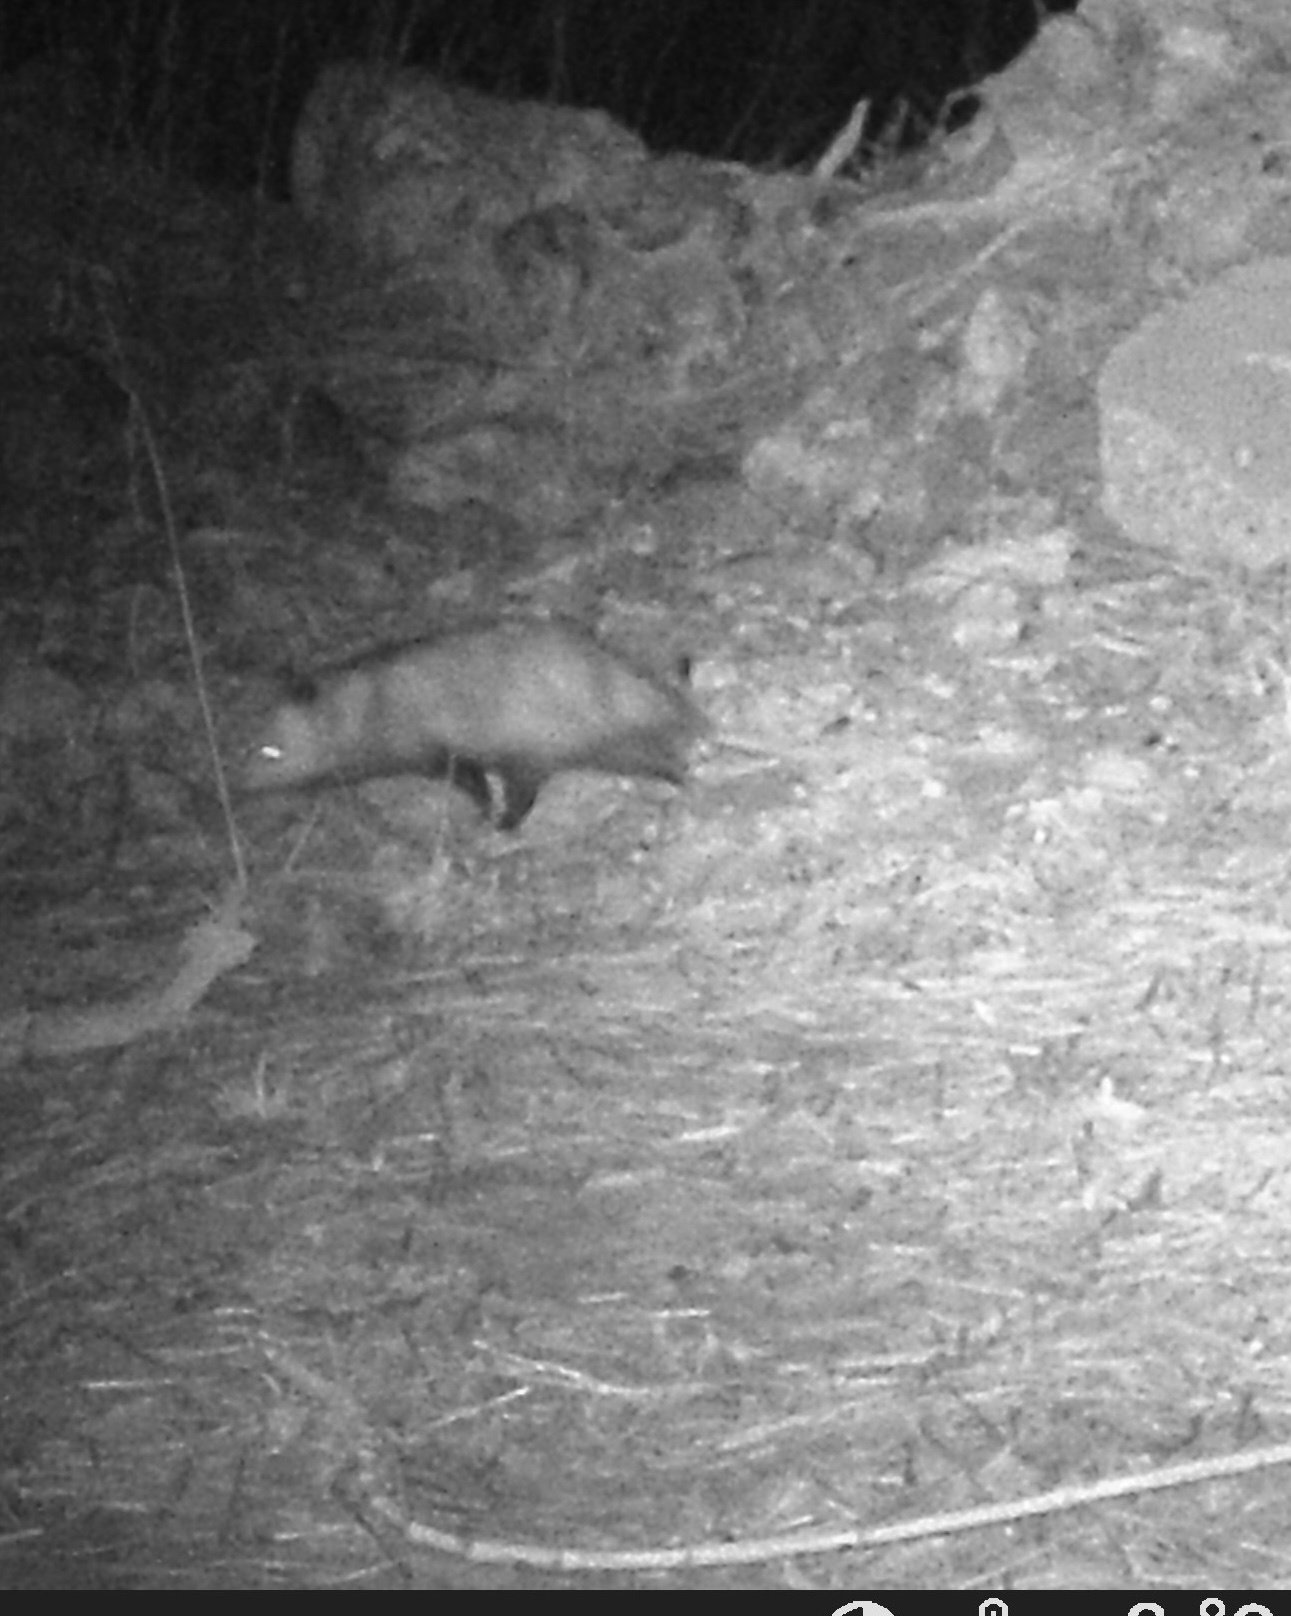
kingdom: Animalia
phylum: Chordata
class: Mammalia
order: Didelphimorphia
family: Didelphidae
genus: Didelphis
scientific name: Didelphis virginiana
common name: Virginia opossum
